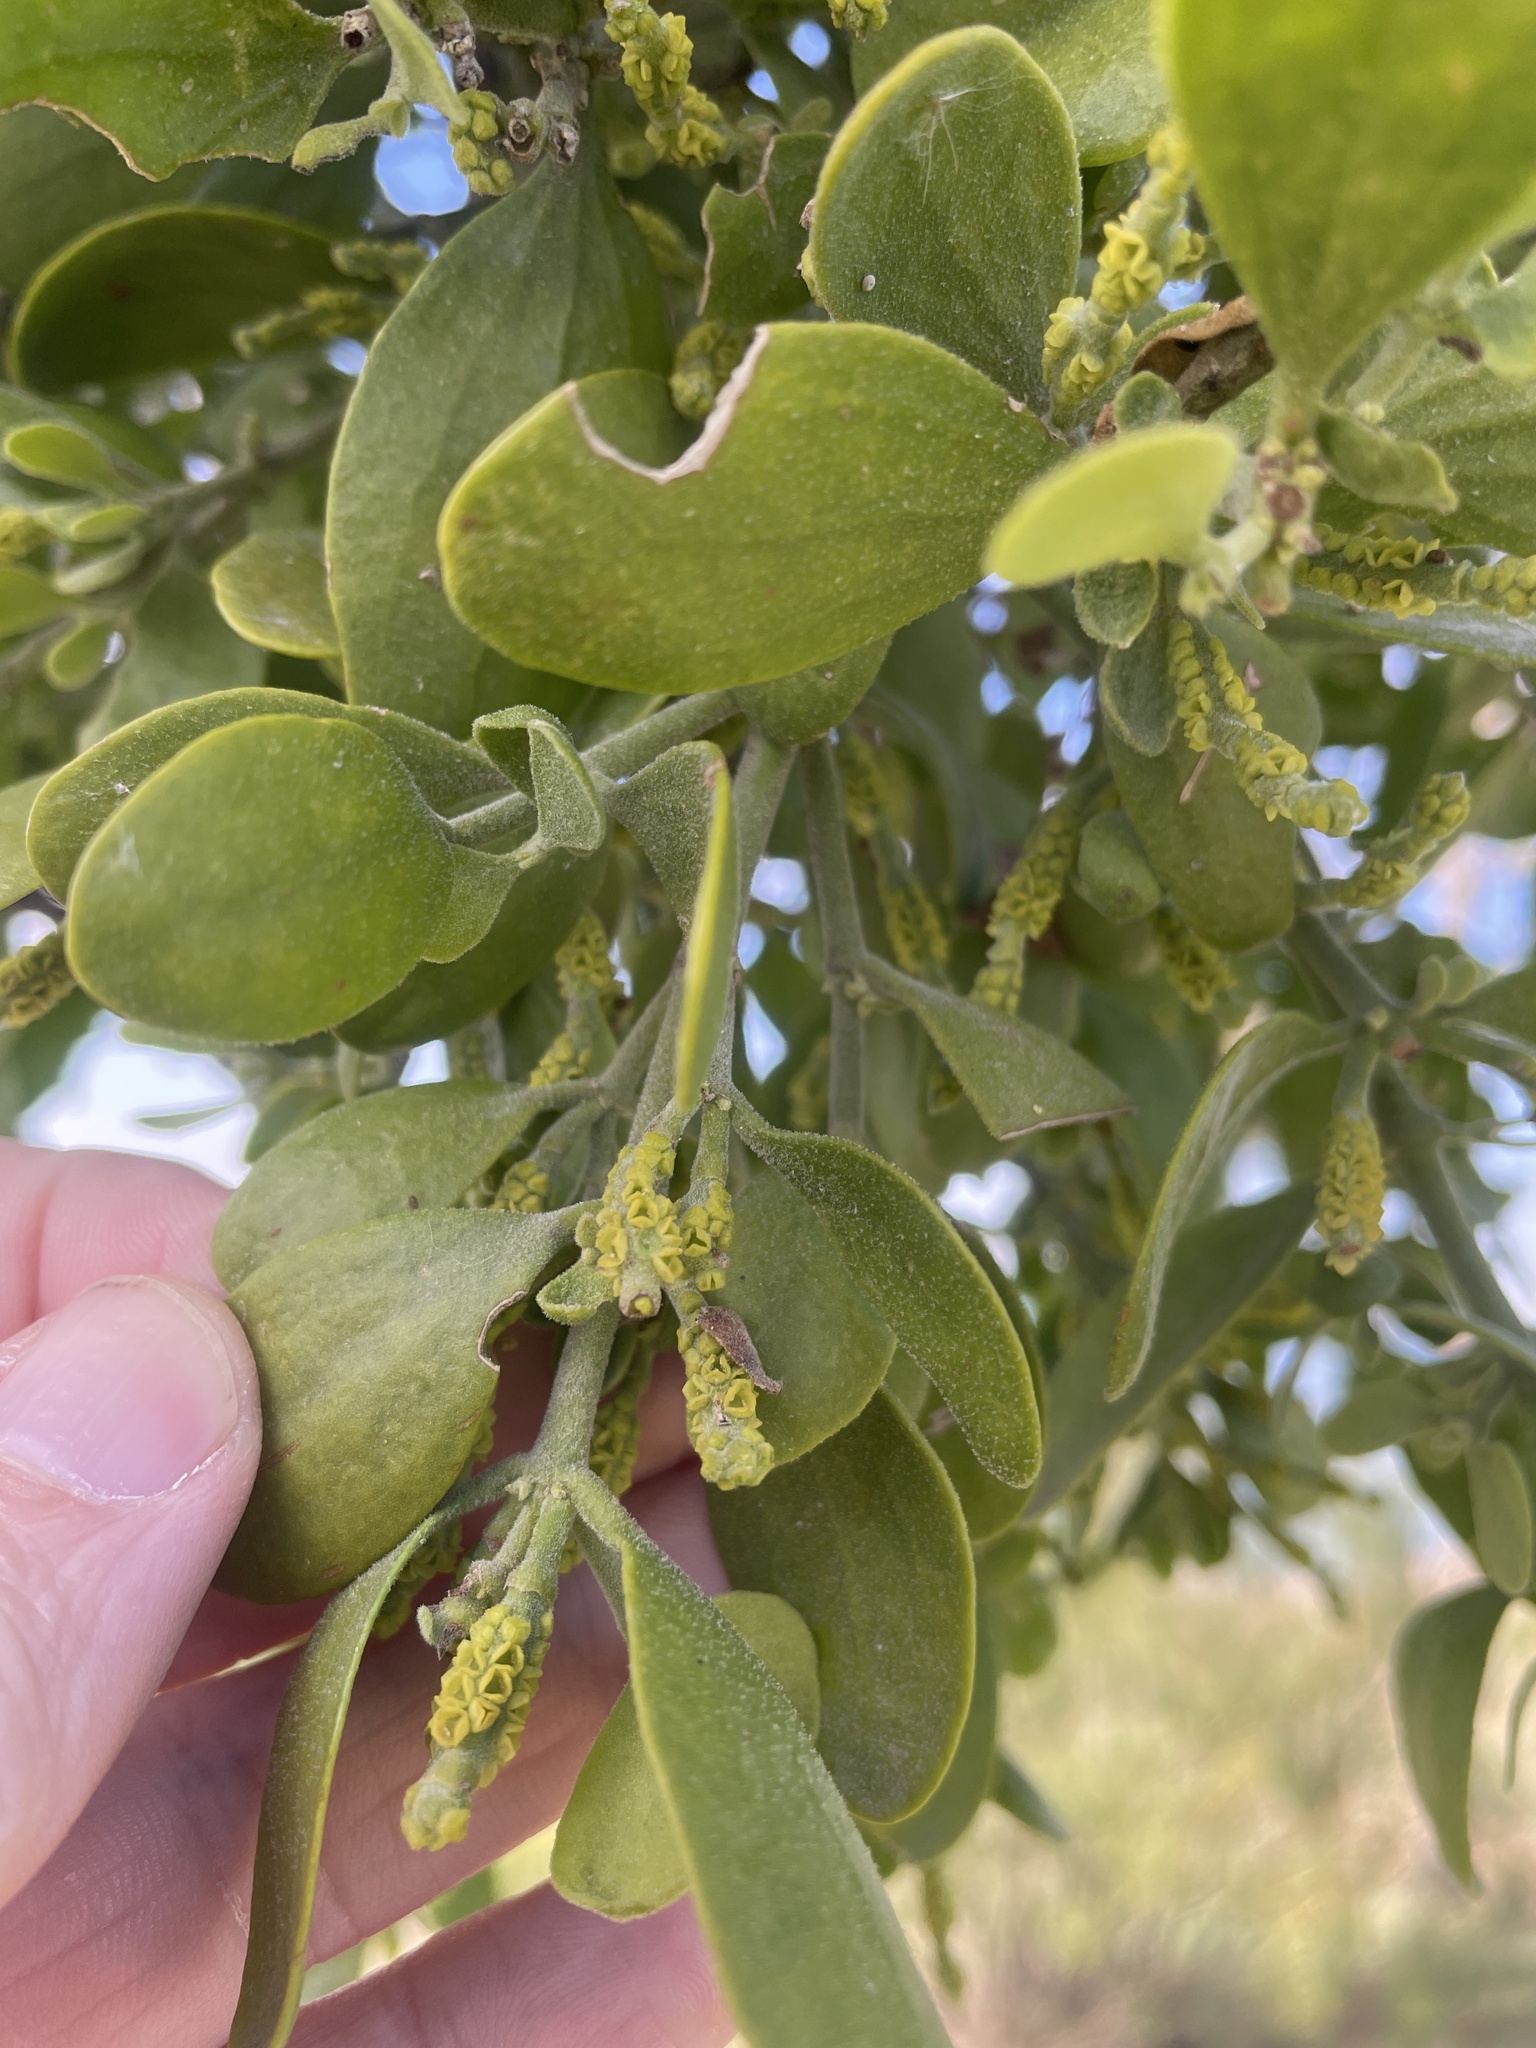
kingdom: Plantae
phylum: Tracheophyta
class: Magnoliopsida
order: Santalales
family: Viscaceae
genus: Phoradendron
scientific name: Phoradendron leucarpum
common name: Pacific mistletoe
